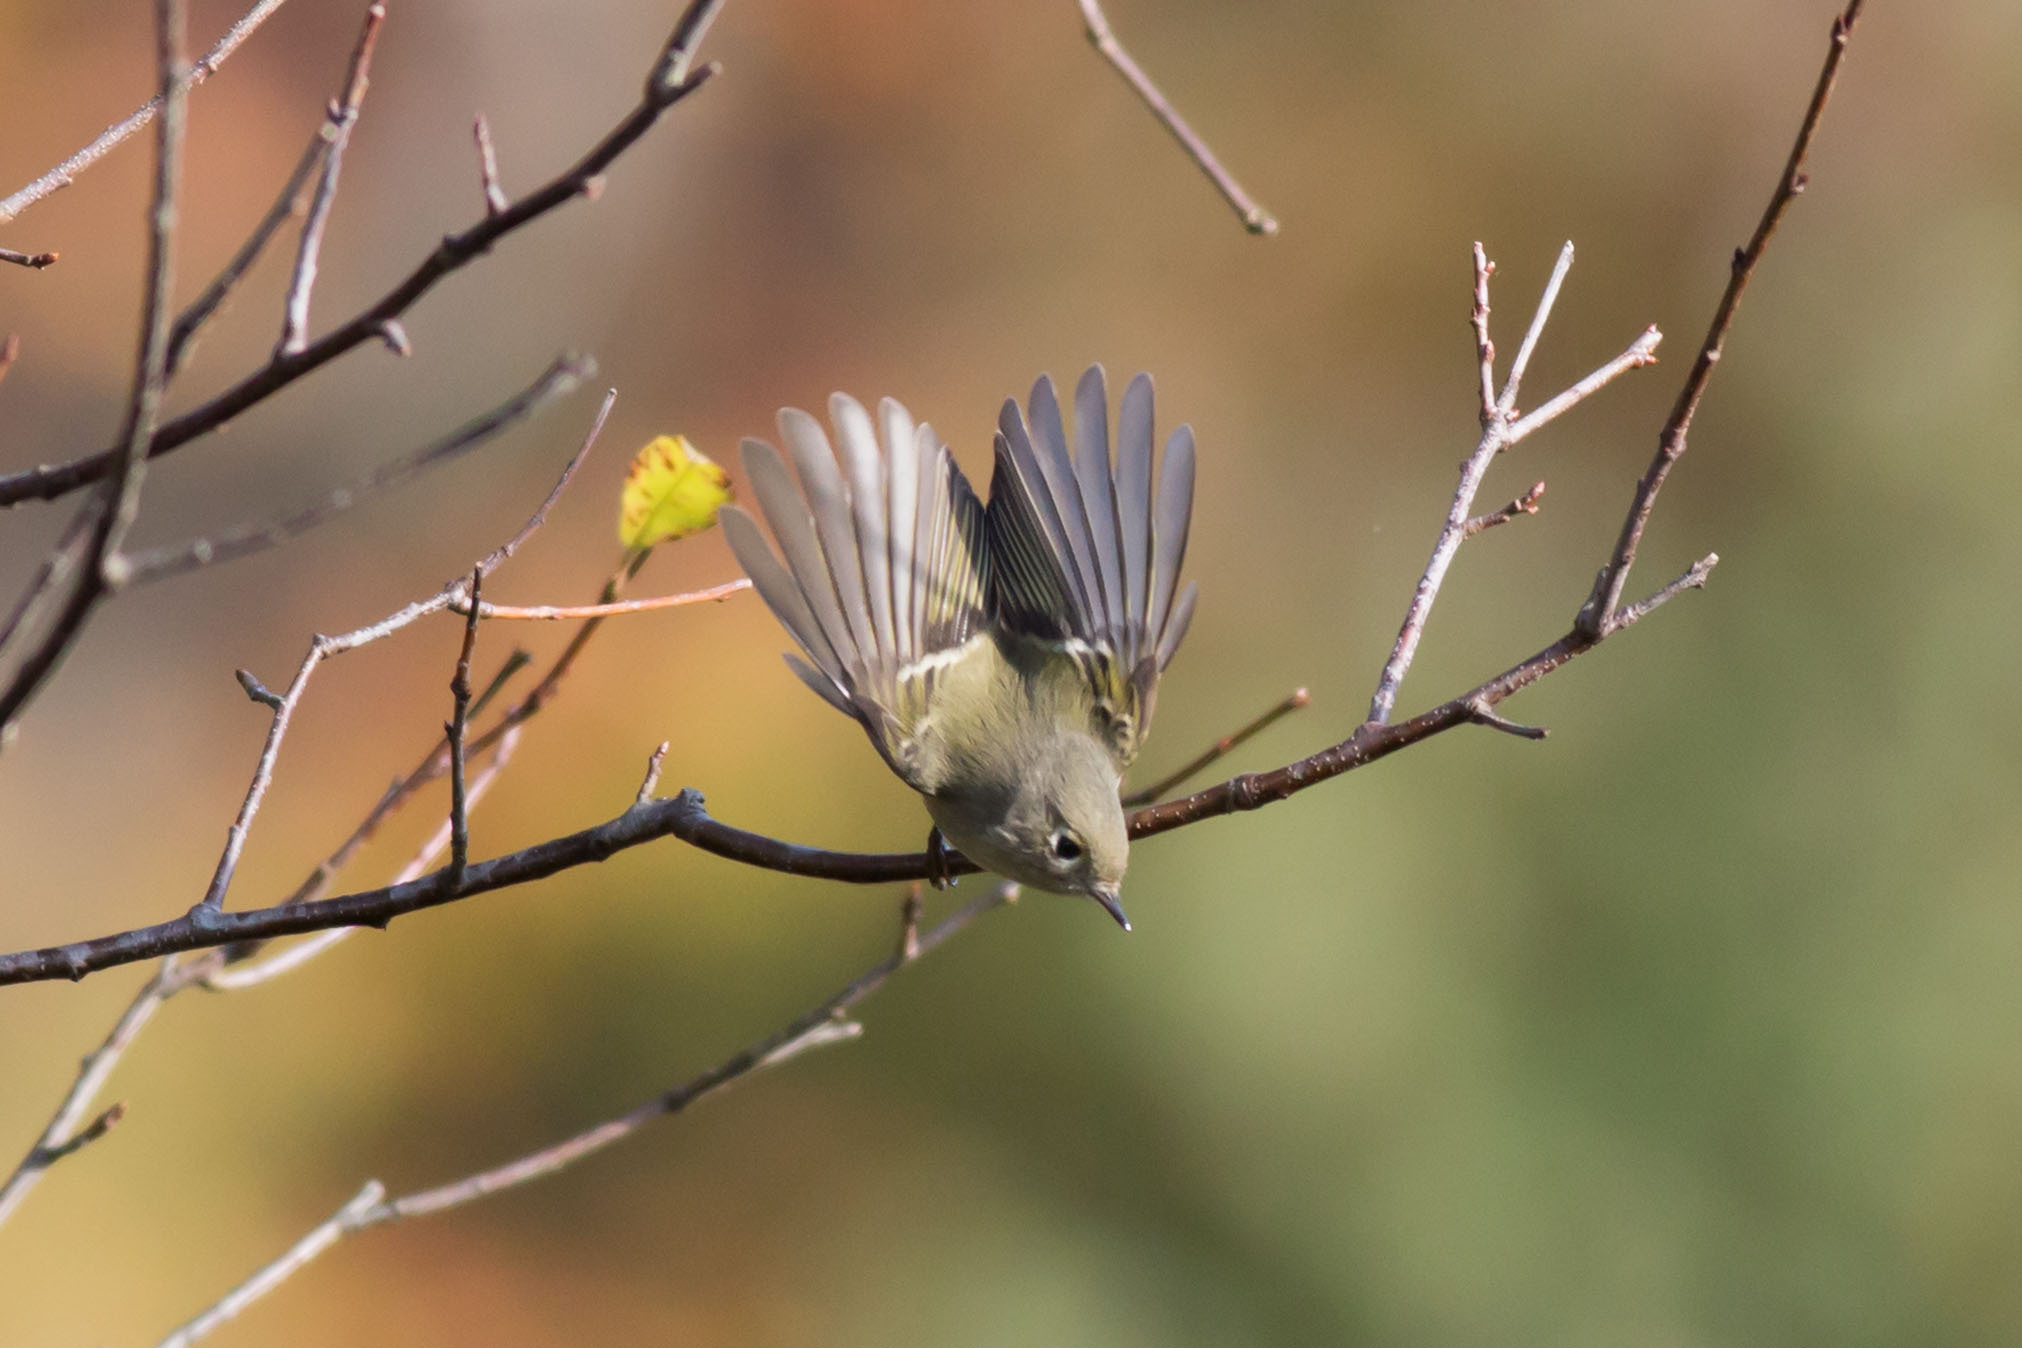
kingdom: Animalia
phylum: Chordata
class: Aves
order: Passeriformes
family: Regulidae
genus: Regulus
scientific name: Regulus calendula
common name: Ruby-crowned kinglet
